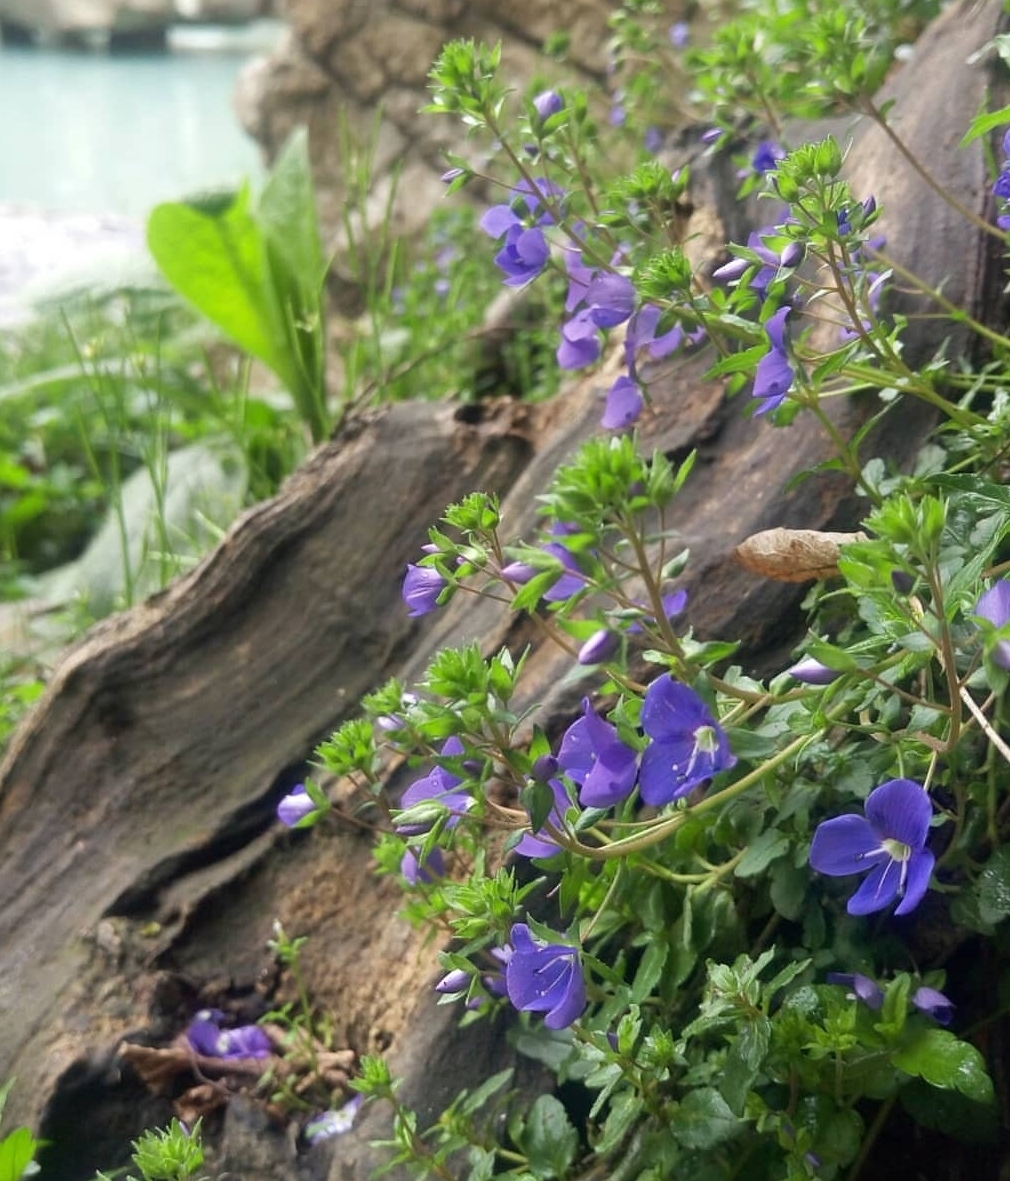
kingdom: Plantae
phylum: Tracheophyta
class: Magnoliopsida
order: Lamiales
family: Plantaginaceae
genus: Veronica
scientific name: Veronica
